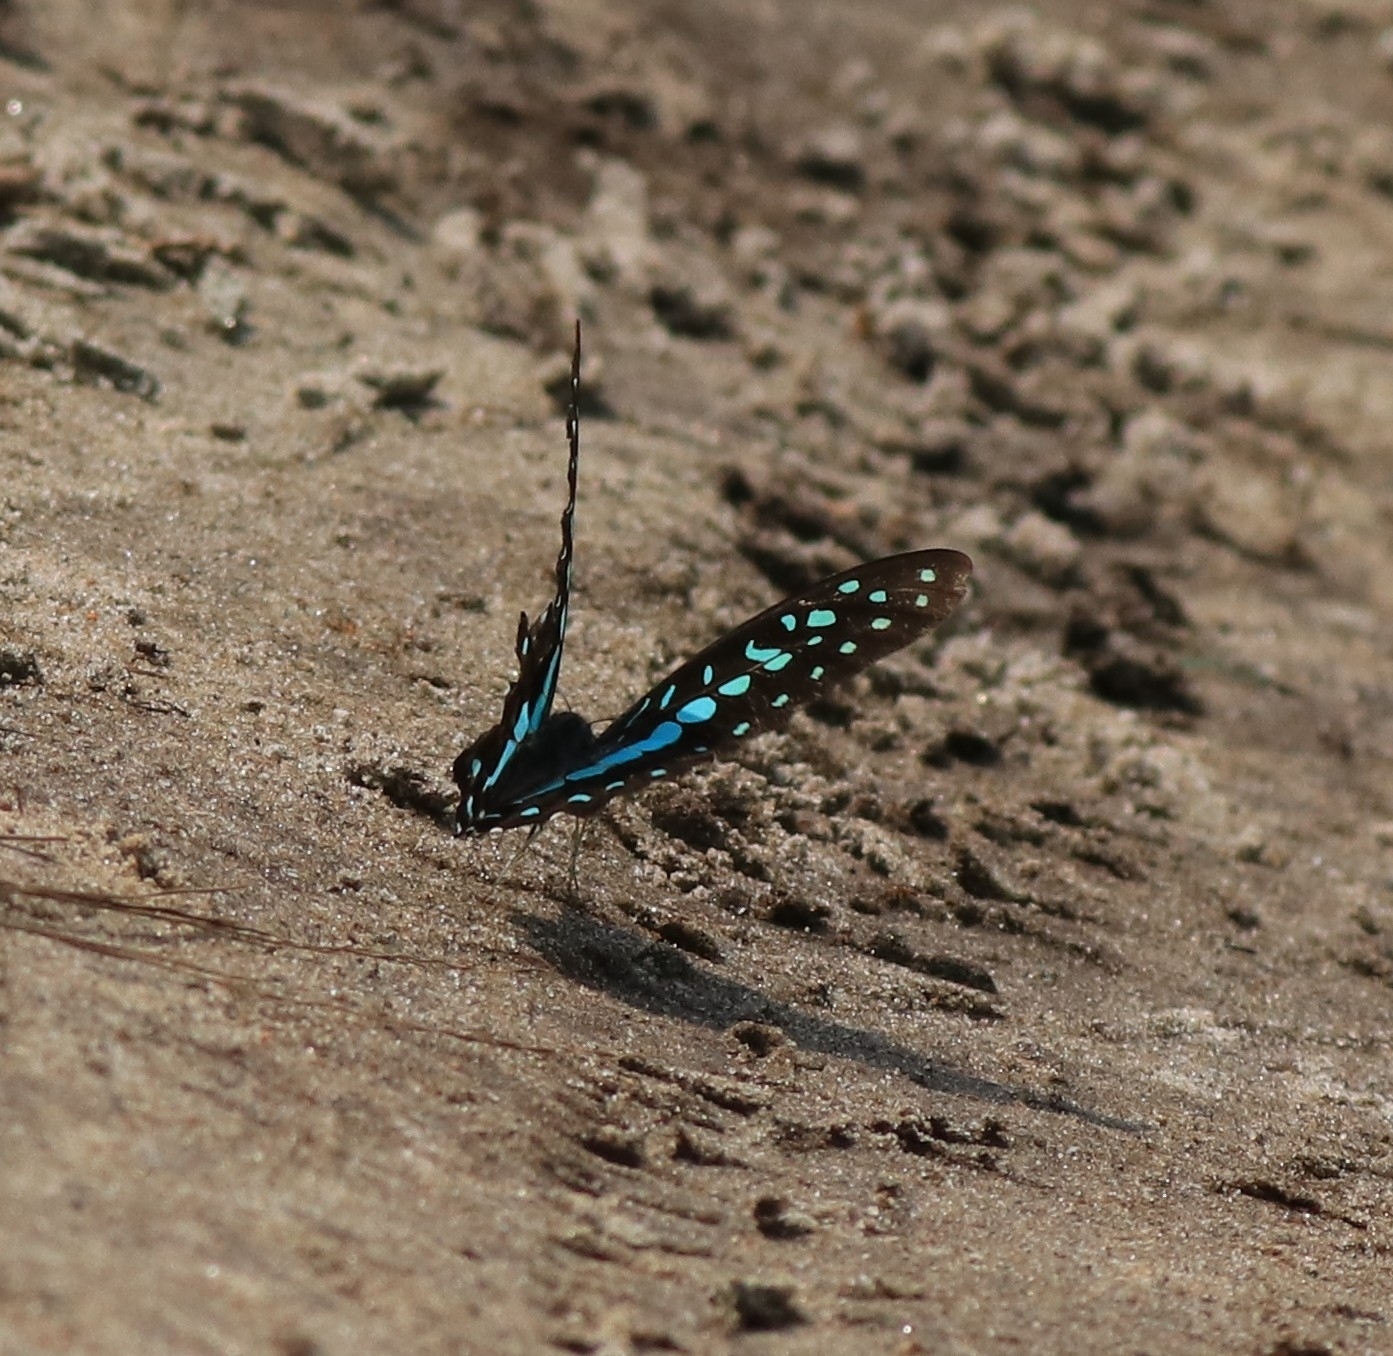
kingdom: Animalia
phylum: Arthropoda
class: Insecta
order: Lepidoptera
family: Papilionidae
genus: Graphium
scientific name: Graphium doson
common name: Common jay
